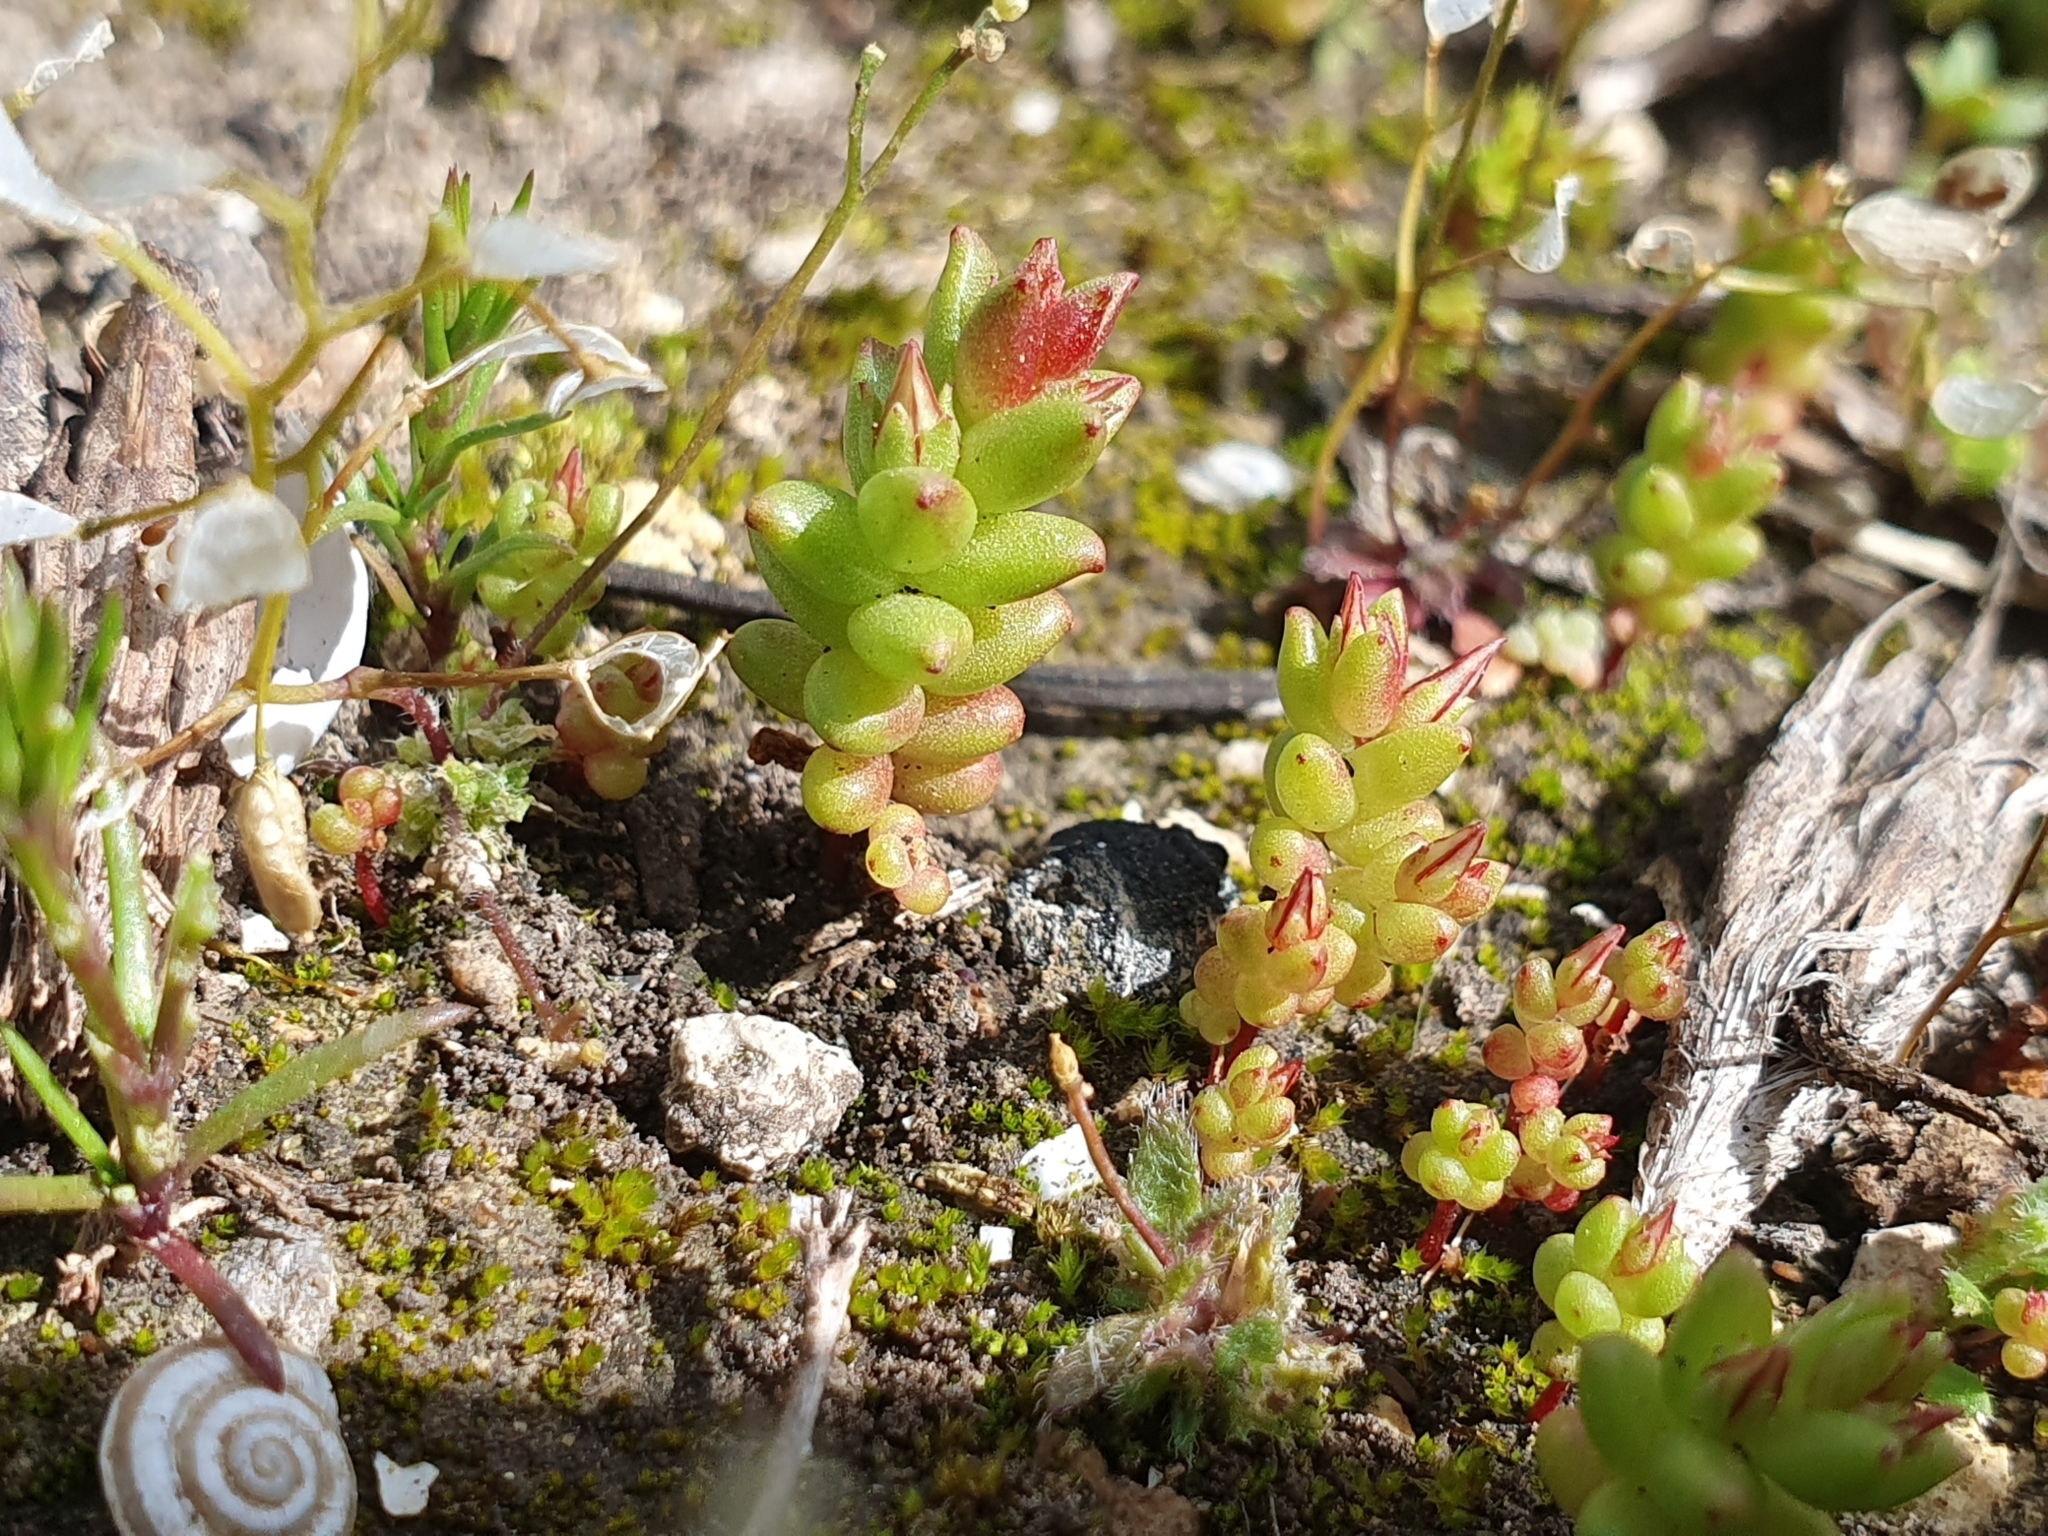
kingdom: Plantae
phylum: Tracheophyta
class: Magnoliopsida
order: Saxifragales
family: Crassulaceae
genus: Sedum
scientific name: Sedum cespitosum
